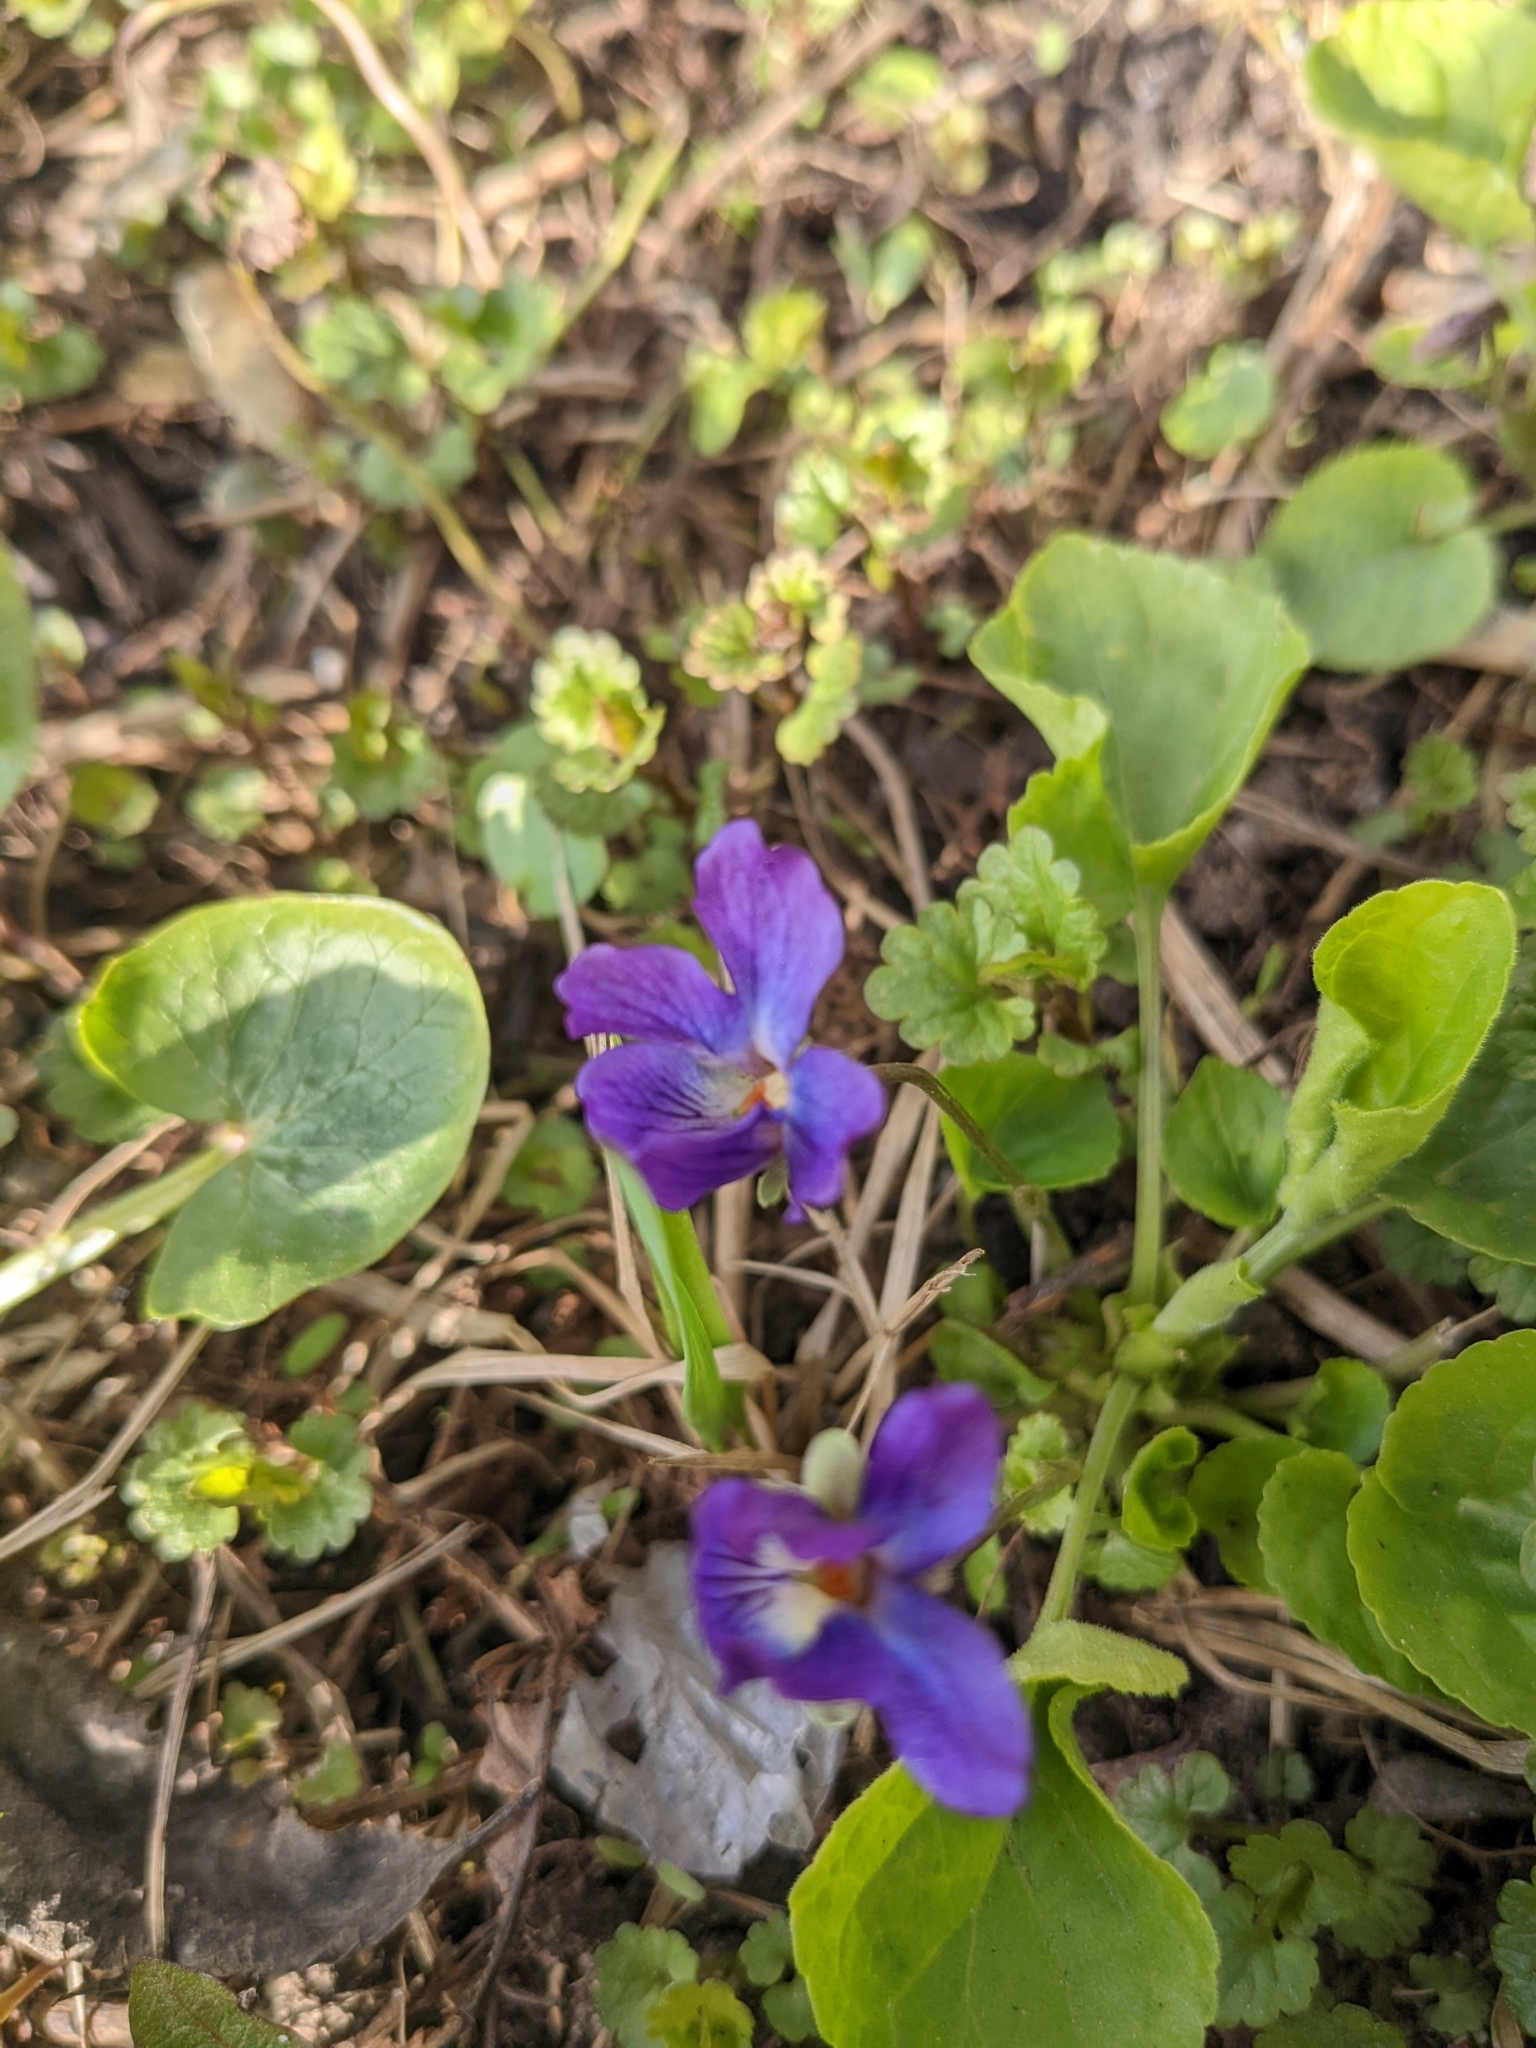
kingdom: Plantae
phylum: Tracheophyta
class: Magnoliopsida
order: Malpighiales
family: Violaceae
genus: Viola
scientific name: Viola odorata
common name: Sweet violet
